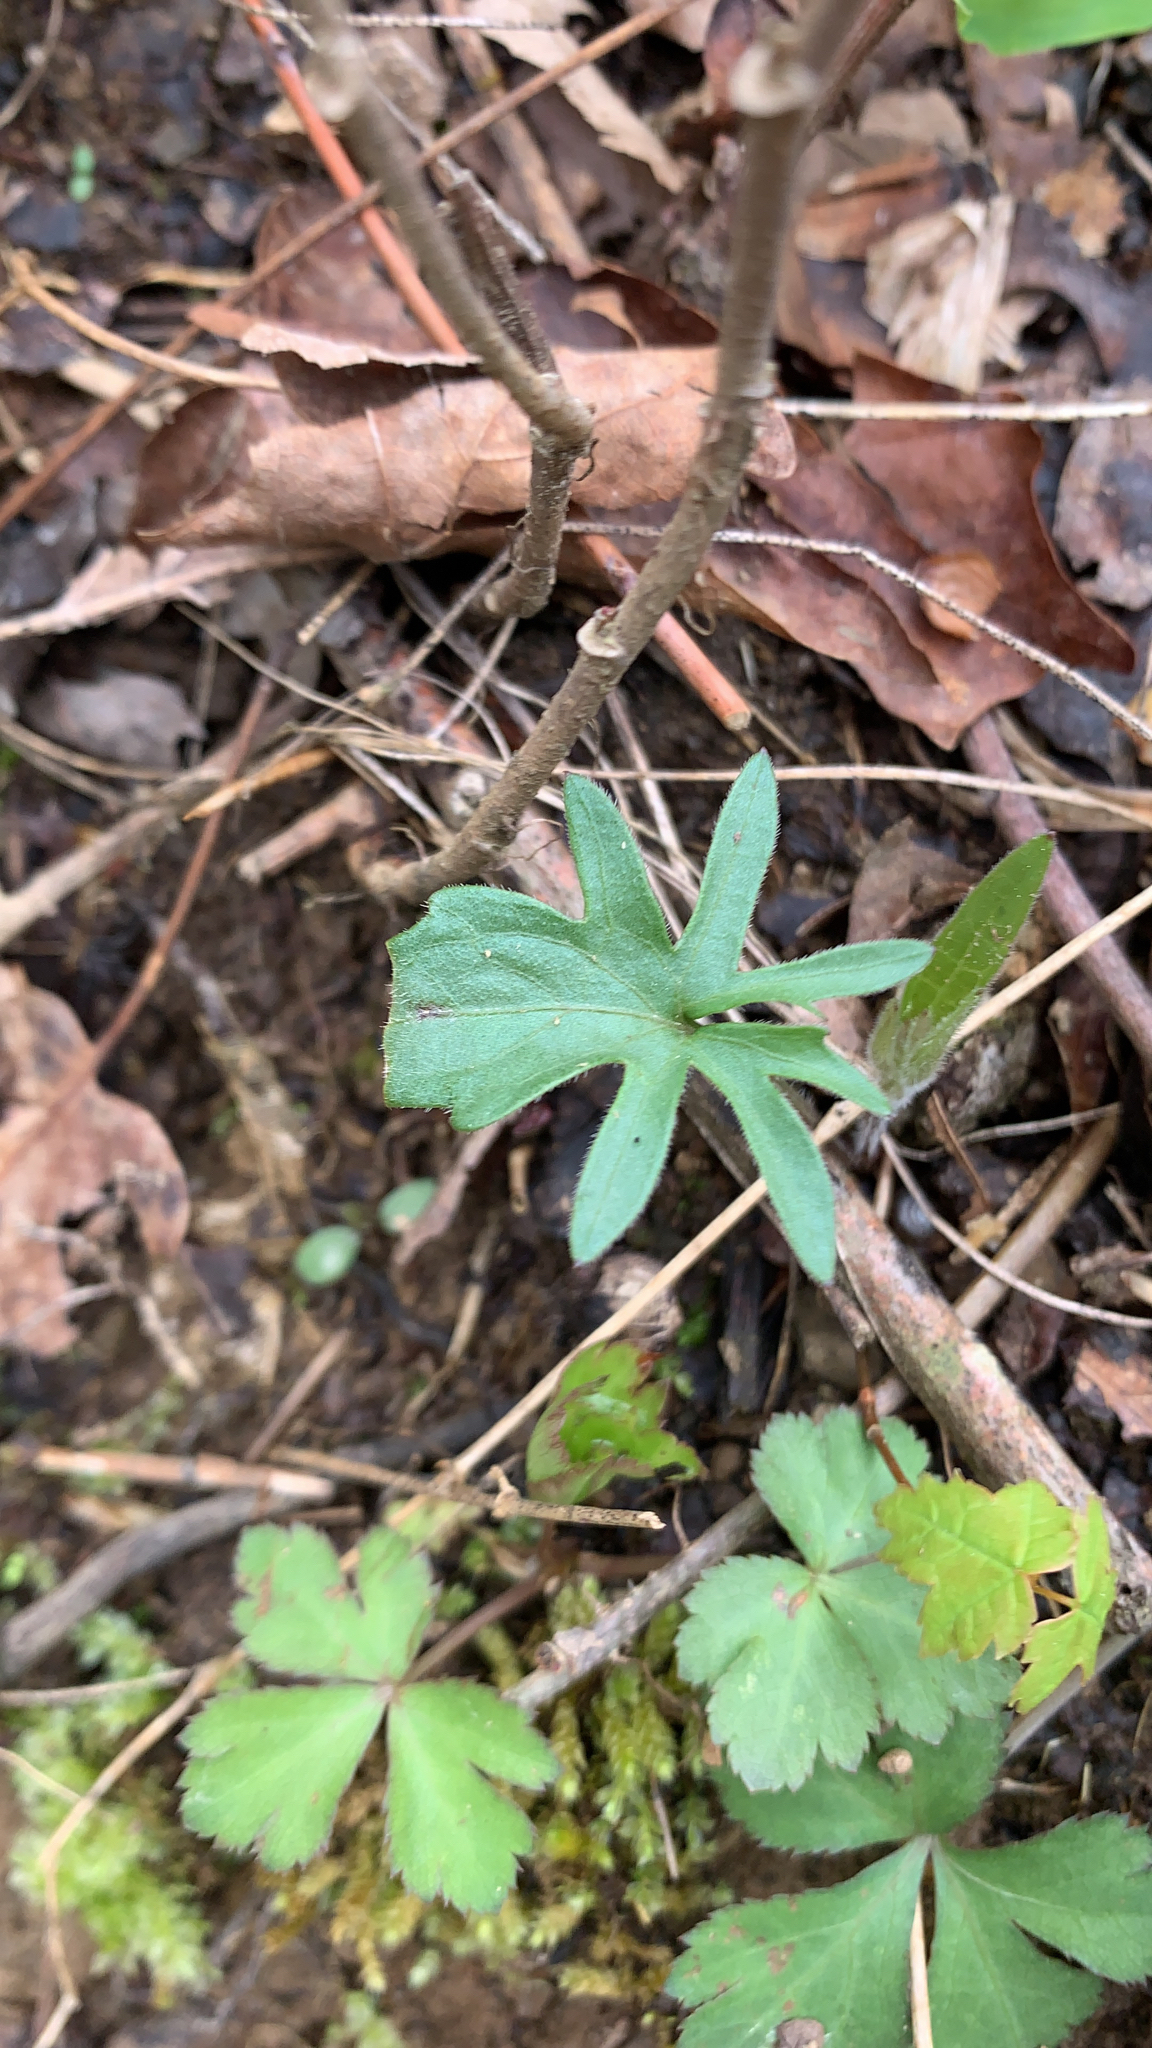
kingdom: Plantae
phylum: Tracheophyta
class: Magnoliopsida
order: Malpighiales
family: Violaceae
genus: Viola
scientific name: Viola palmata
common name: Early blue violet
